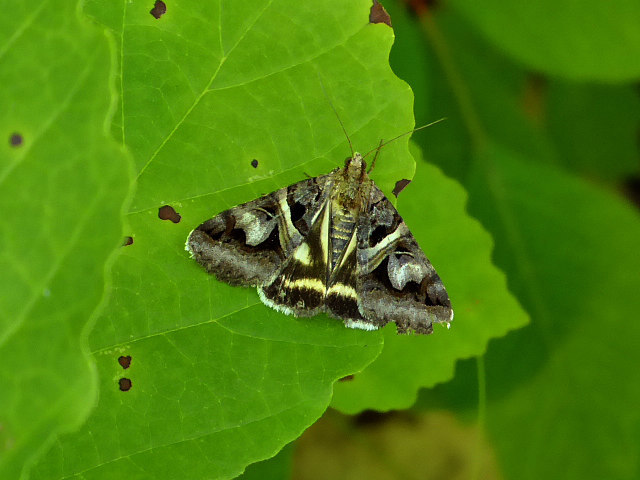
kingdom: Animalia
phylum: Arthropoda
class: Insecta
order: Lepidoptera
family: Erebidae
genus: Drasteria
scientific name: Drasteria grandirena
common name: Figure-seven moth
